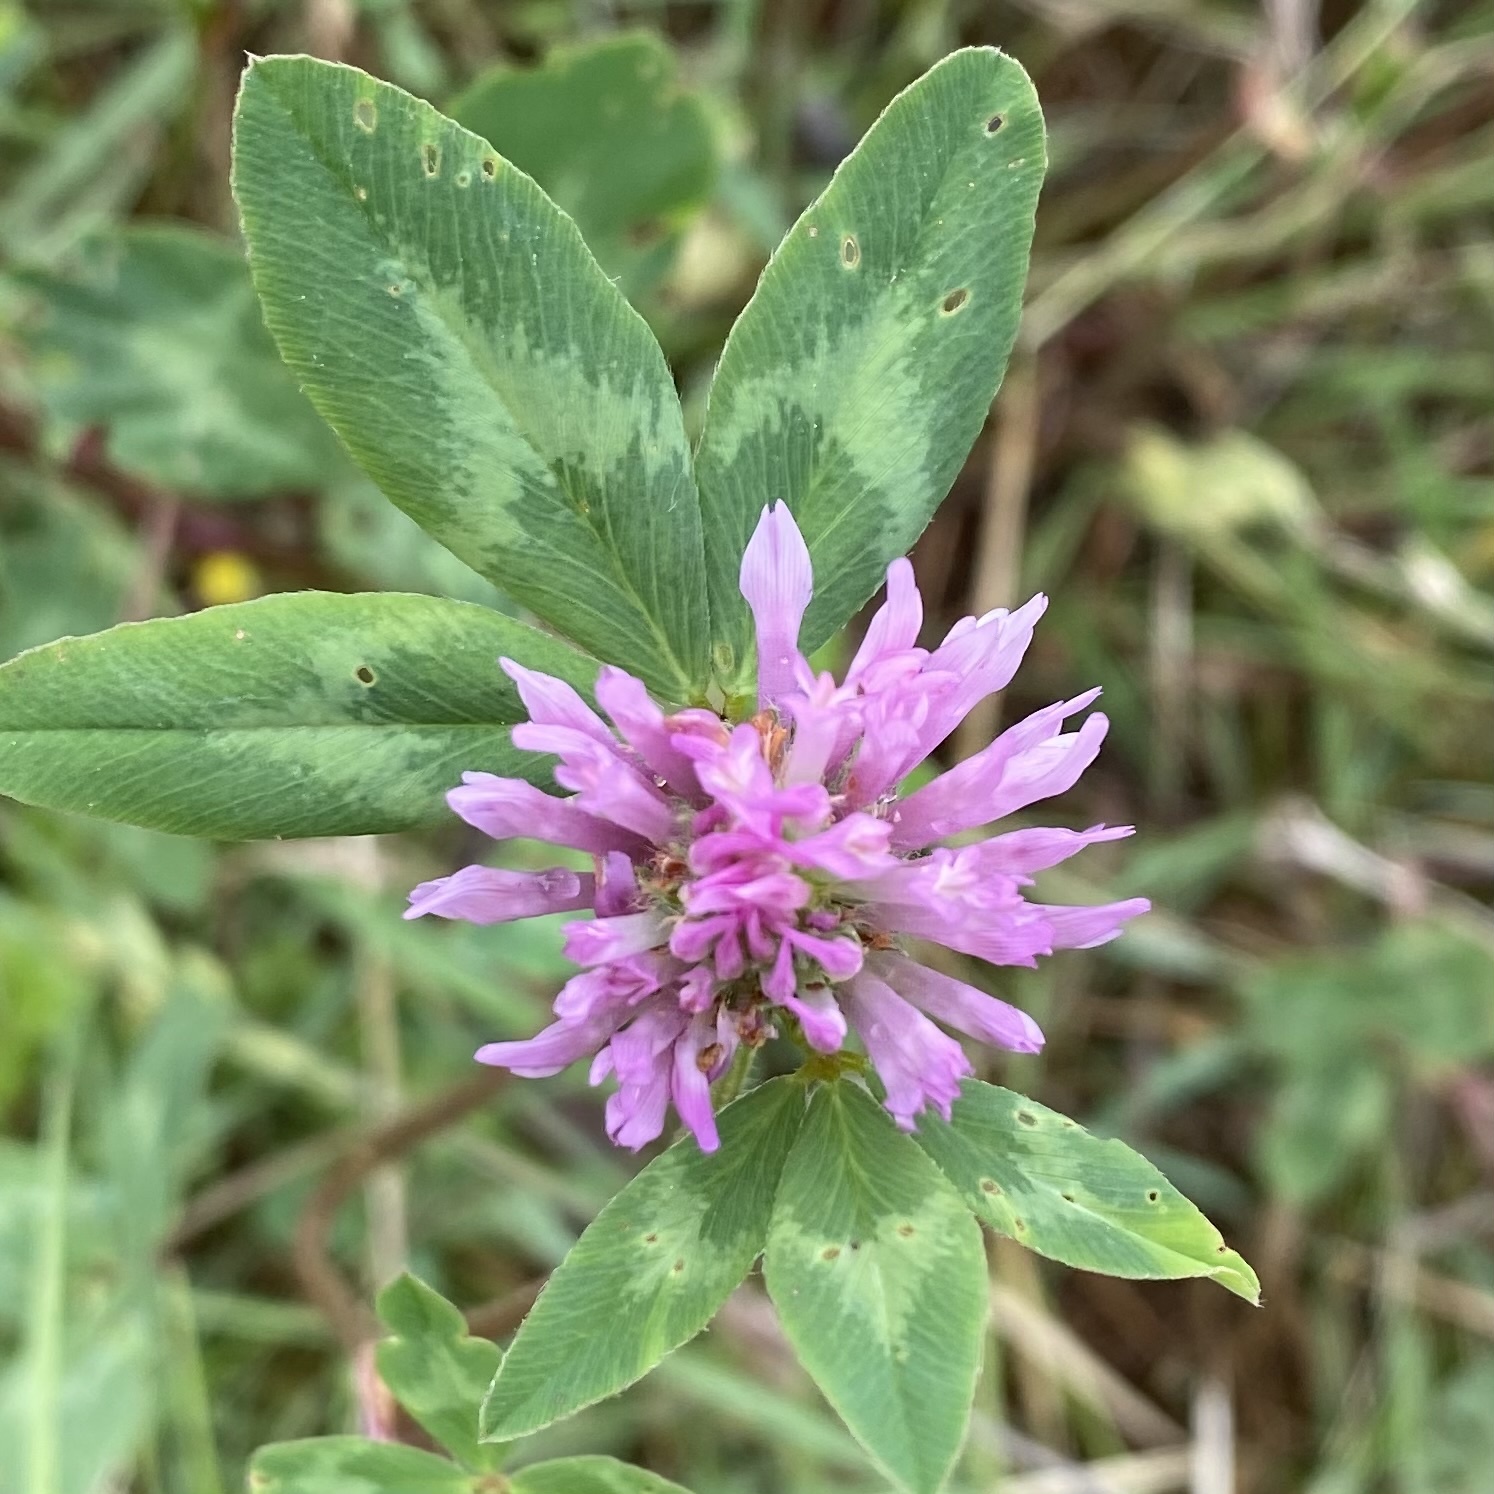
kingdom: Plantae
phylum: Tracheophyta
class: Magnoliopsida
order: Fabales
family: Fabaceae
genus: Trifolium
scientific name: Trifolium pratense
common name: Red clover
